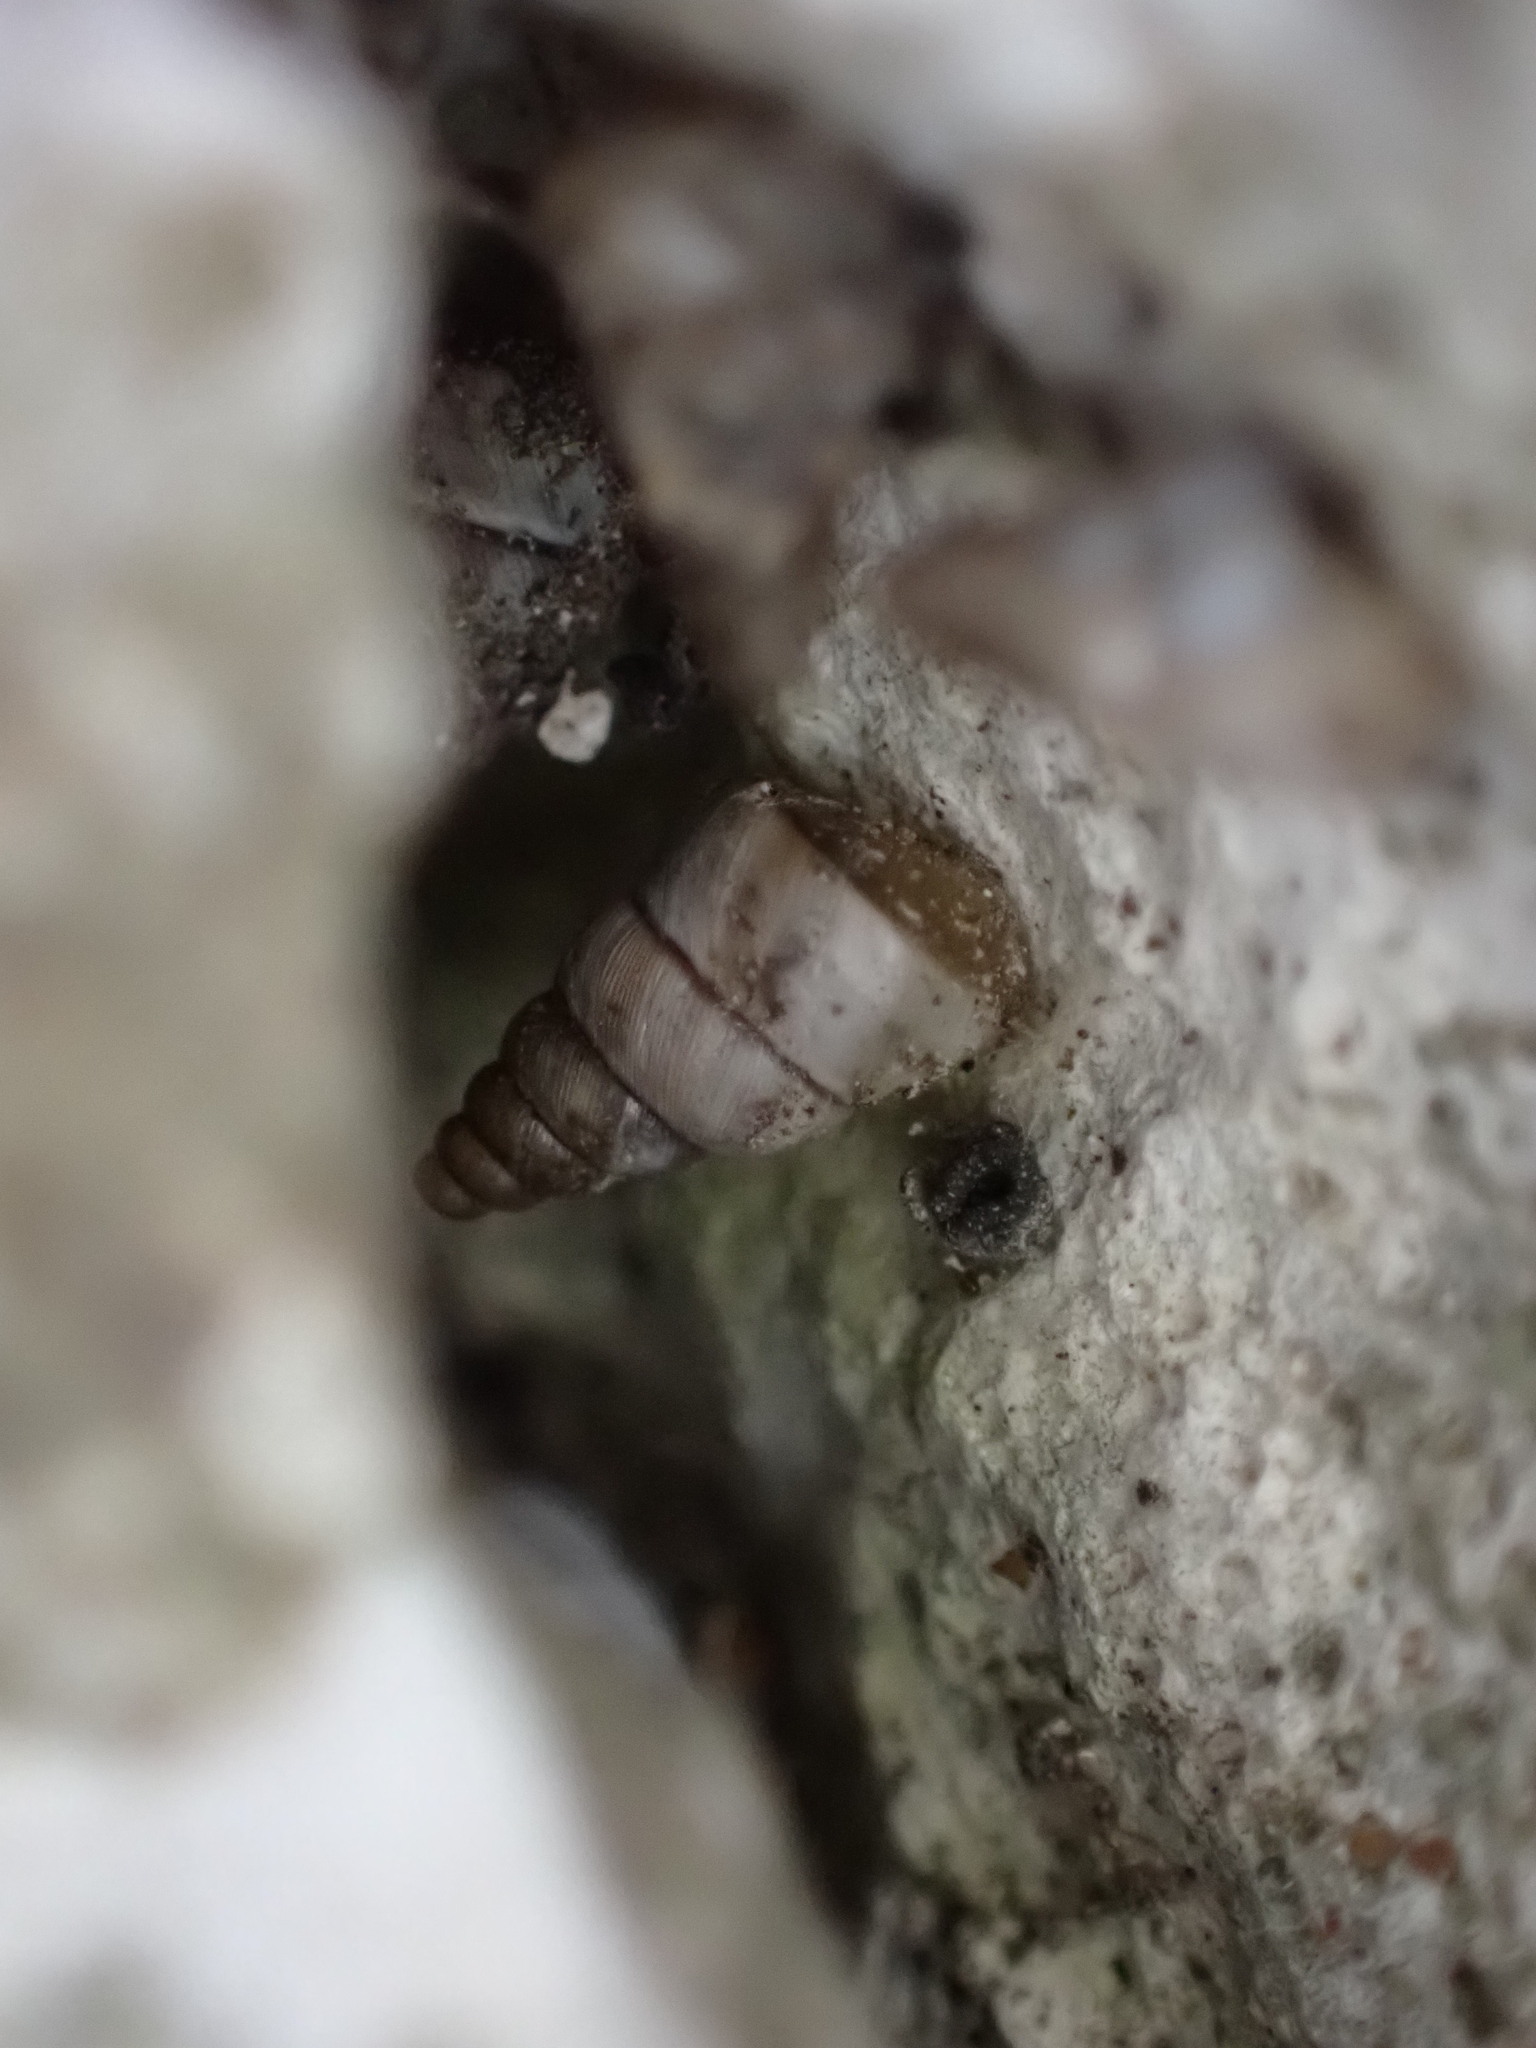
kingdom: Animalia
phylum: Mollusca
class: Gastropoda
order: Stylommatophora
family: Chondrinidae
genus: Solatopupa
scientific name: Solatopupa similis
